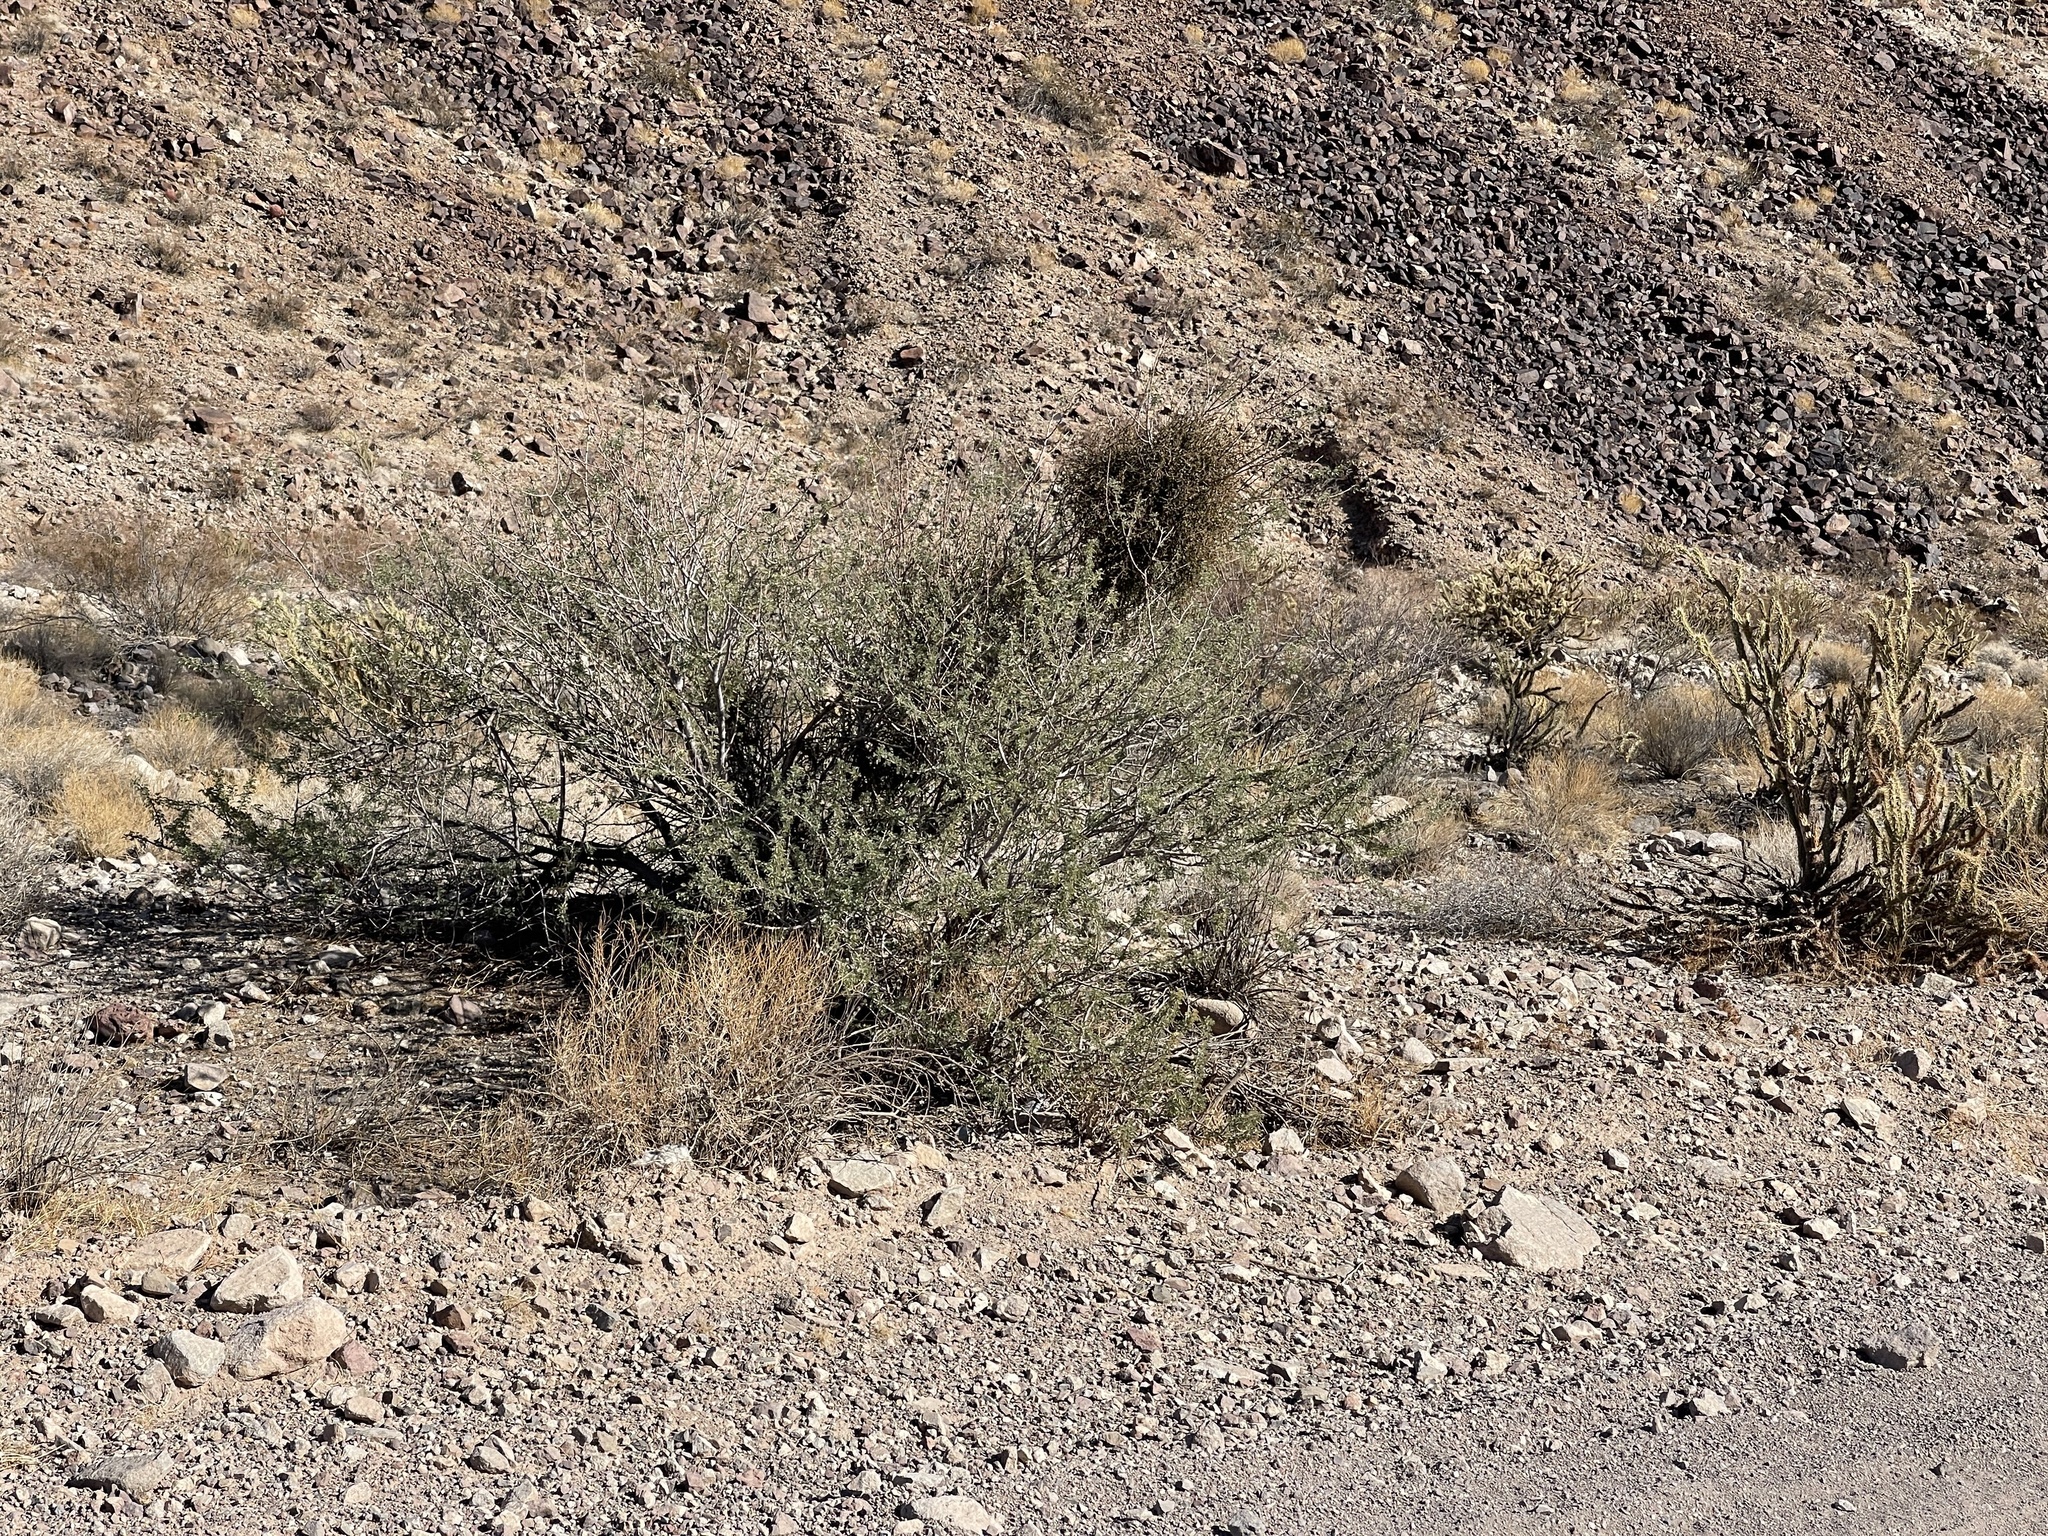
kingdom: Plantae
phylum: Tracheophyta
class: Magnoliopsida
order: Fabales
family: Fabaceae
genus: Senegalia
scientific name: Senegalia greggii
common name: Texas-mimosa
